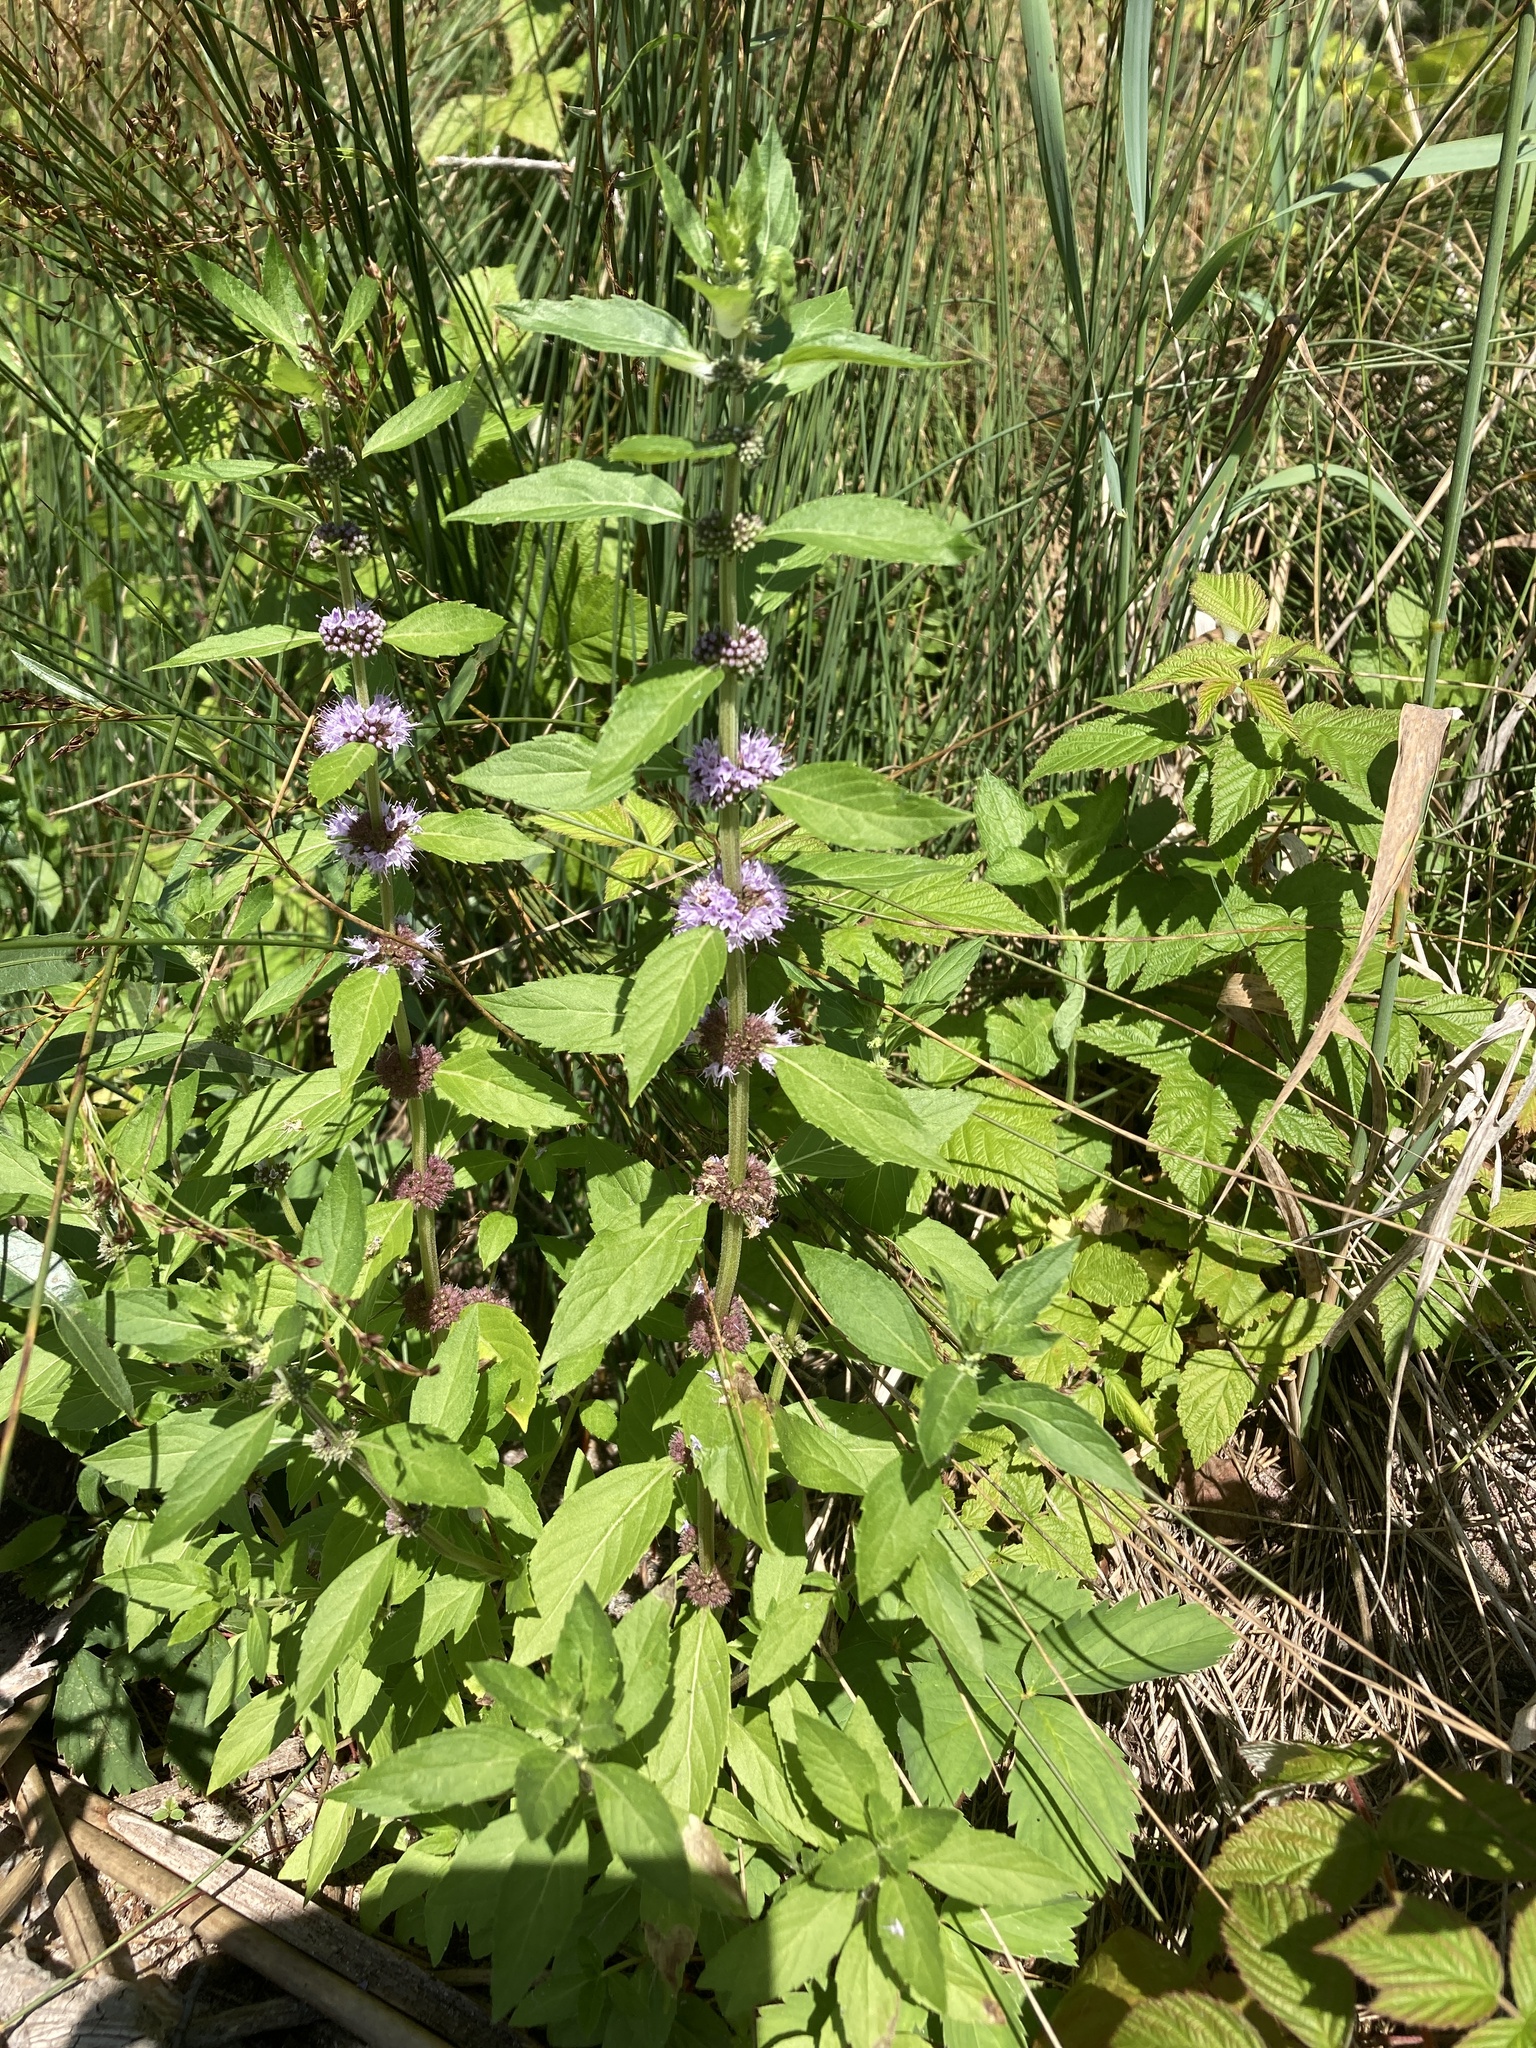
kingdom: Plantae
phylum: Tracheophyta
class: Magnoliopsida
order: Lamiales
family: Lamiaceae
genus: Mentha
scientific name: Mentha canadensis
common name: American corn mint
